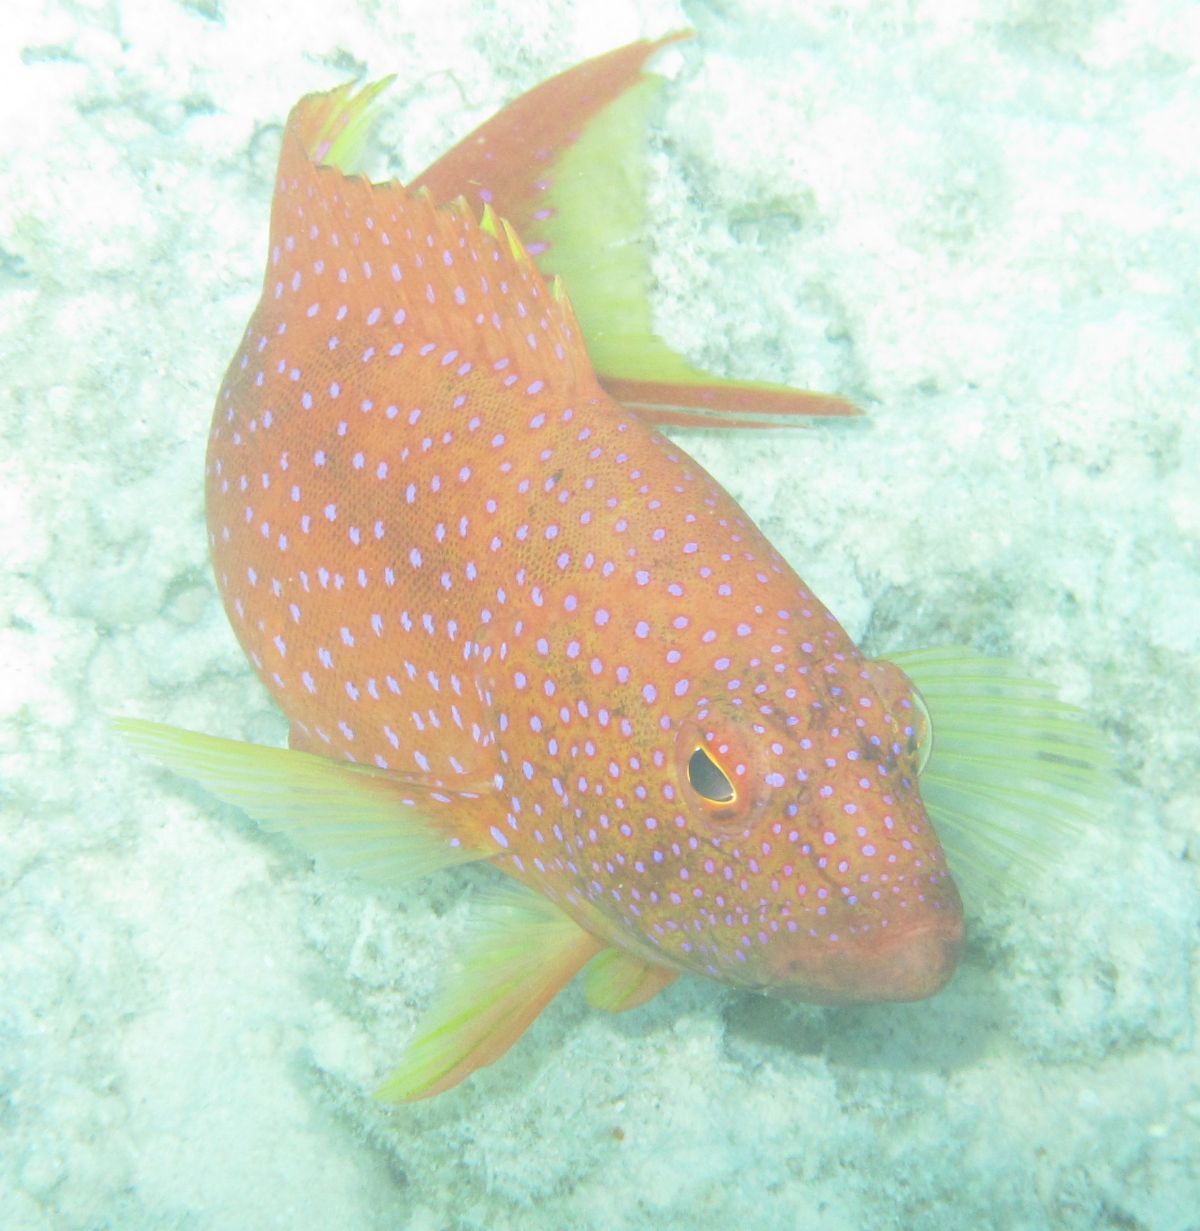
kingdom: Animalia
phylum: Chordata
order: Perciformes
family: Serranidae
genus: Variola
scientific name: Variola louti
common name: Yellow-edged lyretail
